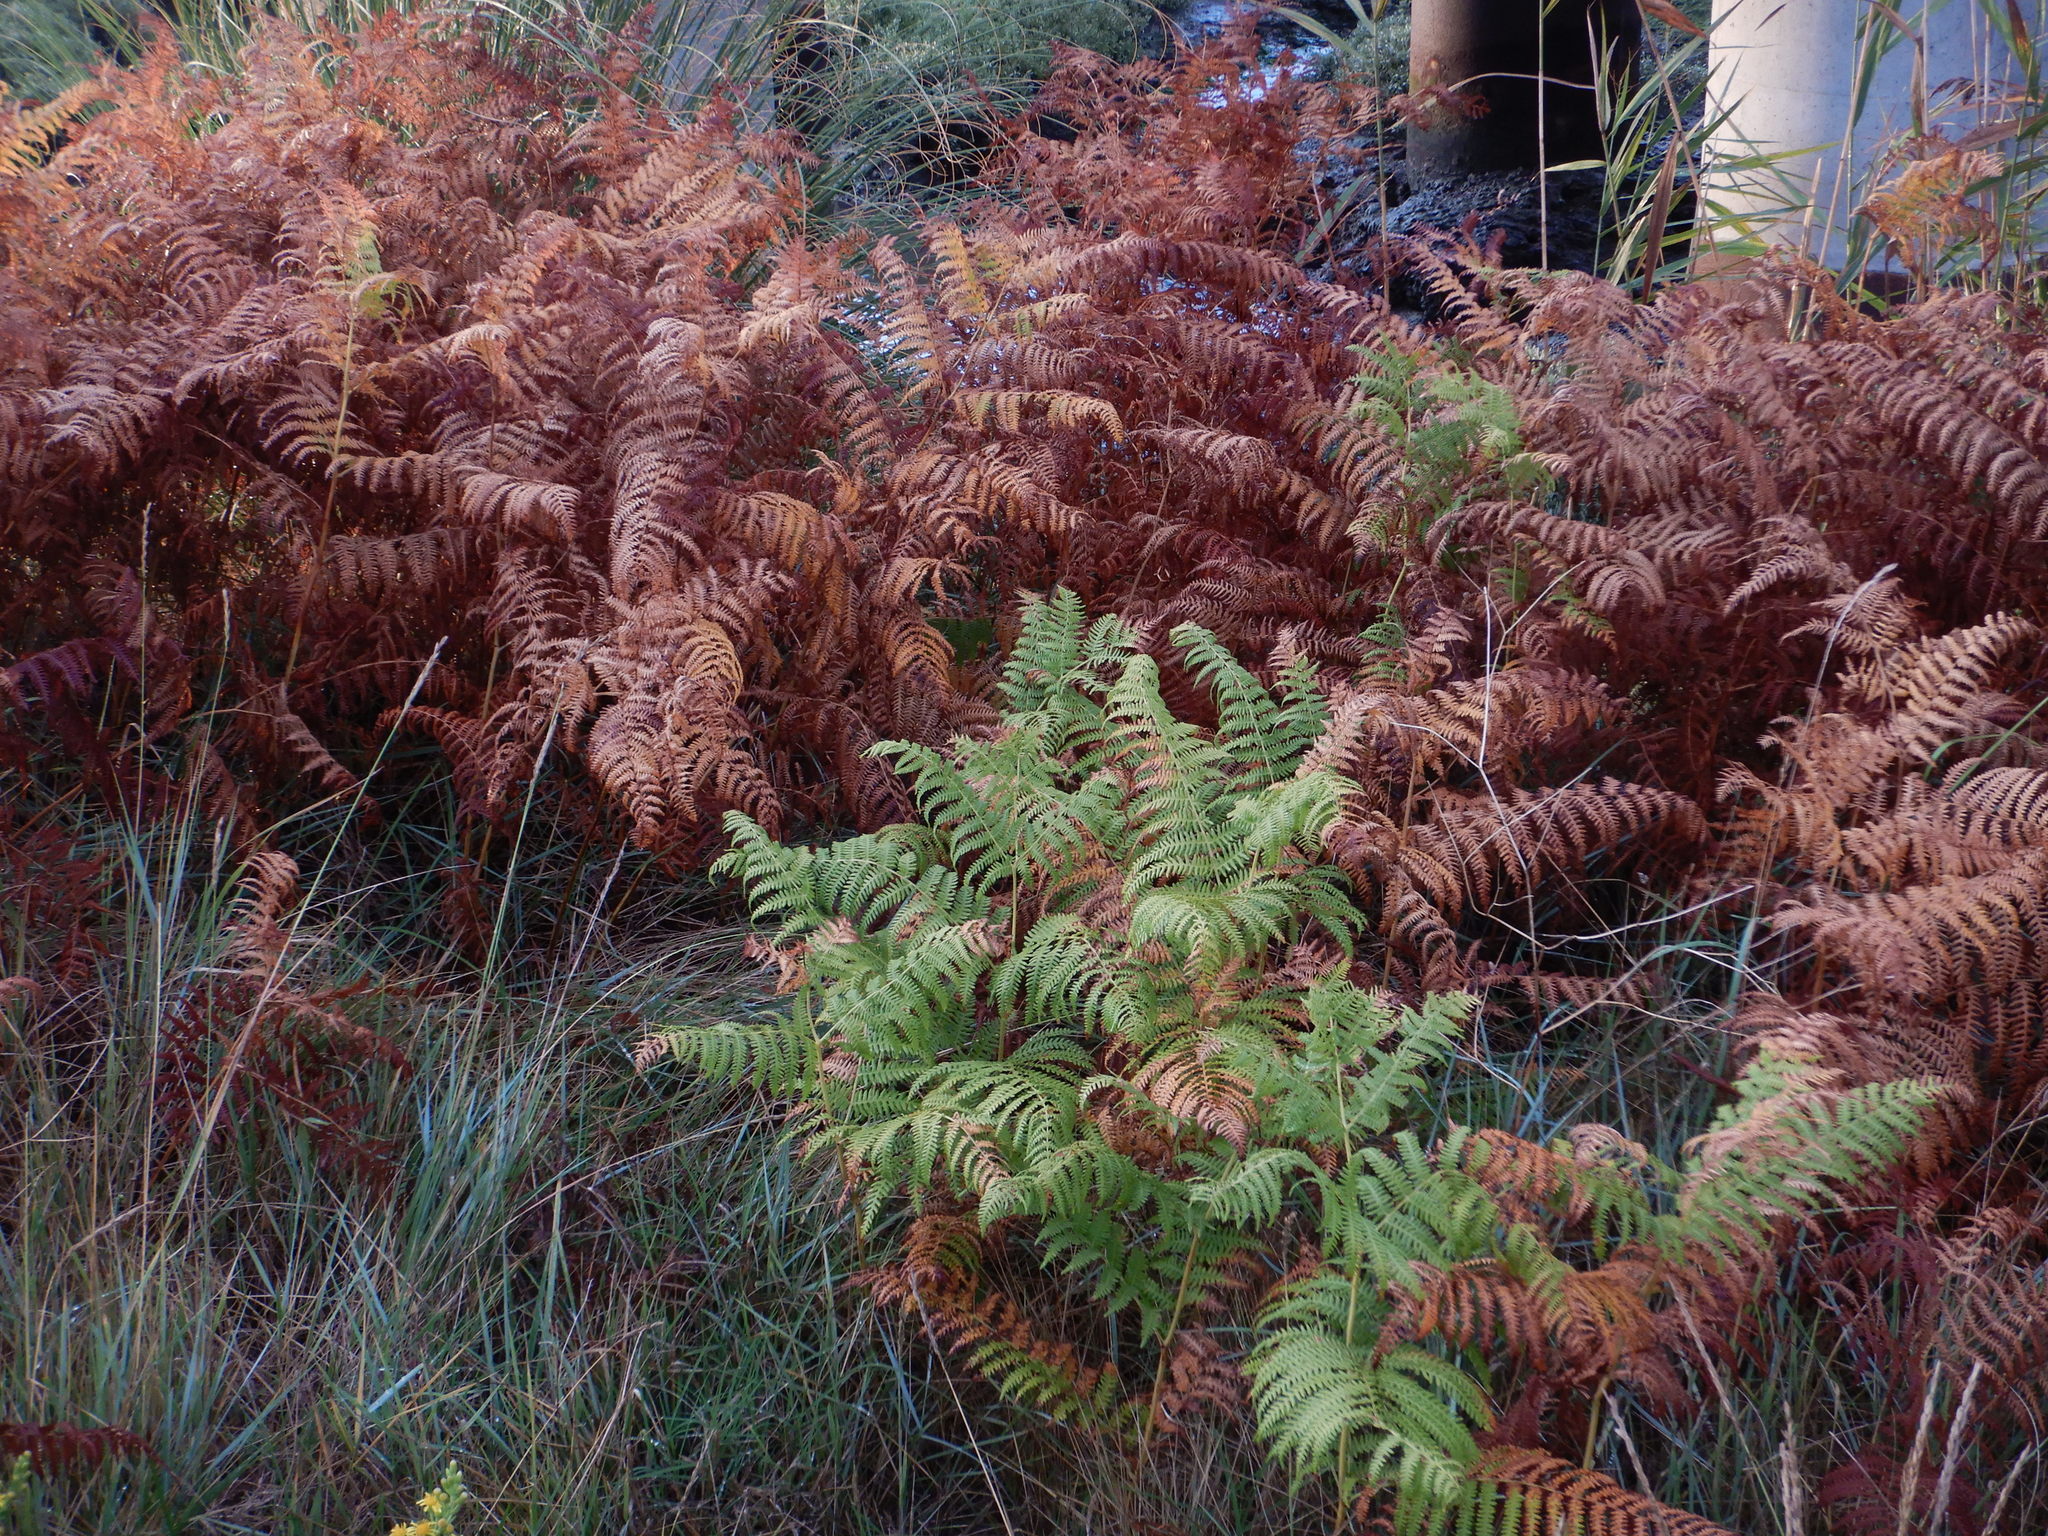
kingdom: Plantae
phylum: Tracheophyta
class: Polypodiopsida
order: Polypodiales
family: Dennstaedtiaceae
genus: Pteridium
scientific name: Pteridium aquilinum
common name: Bracken
